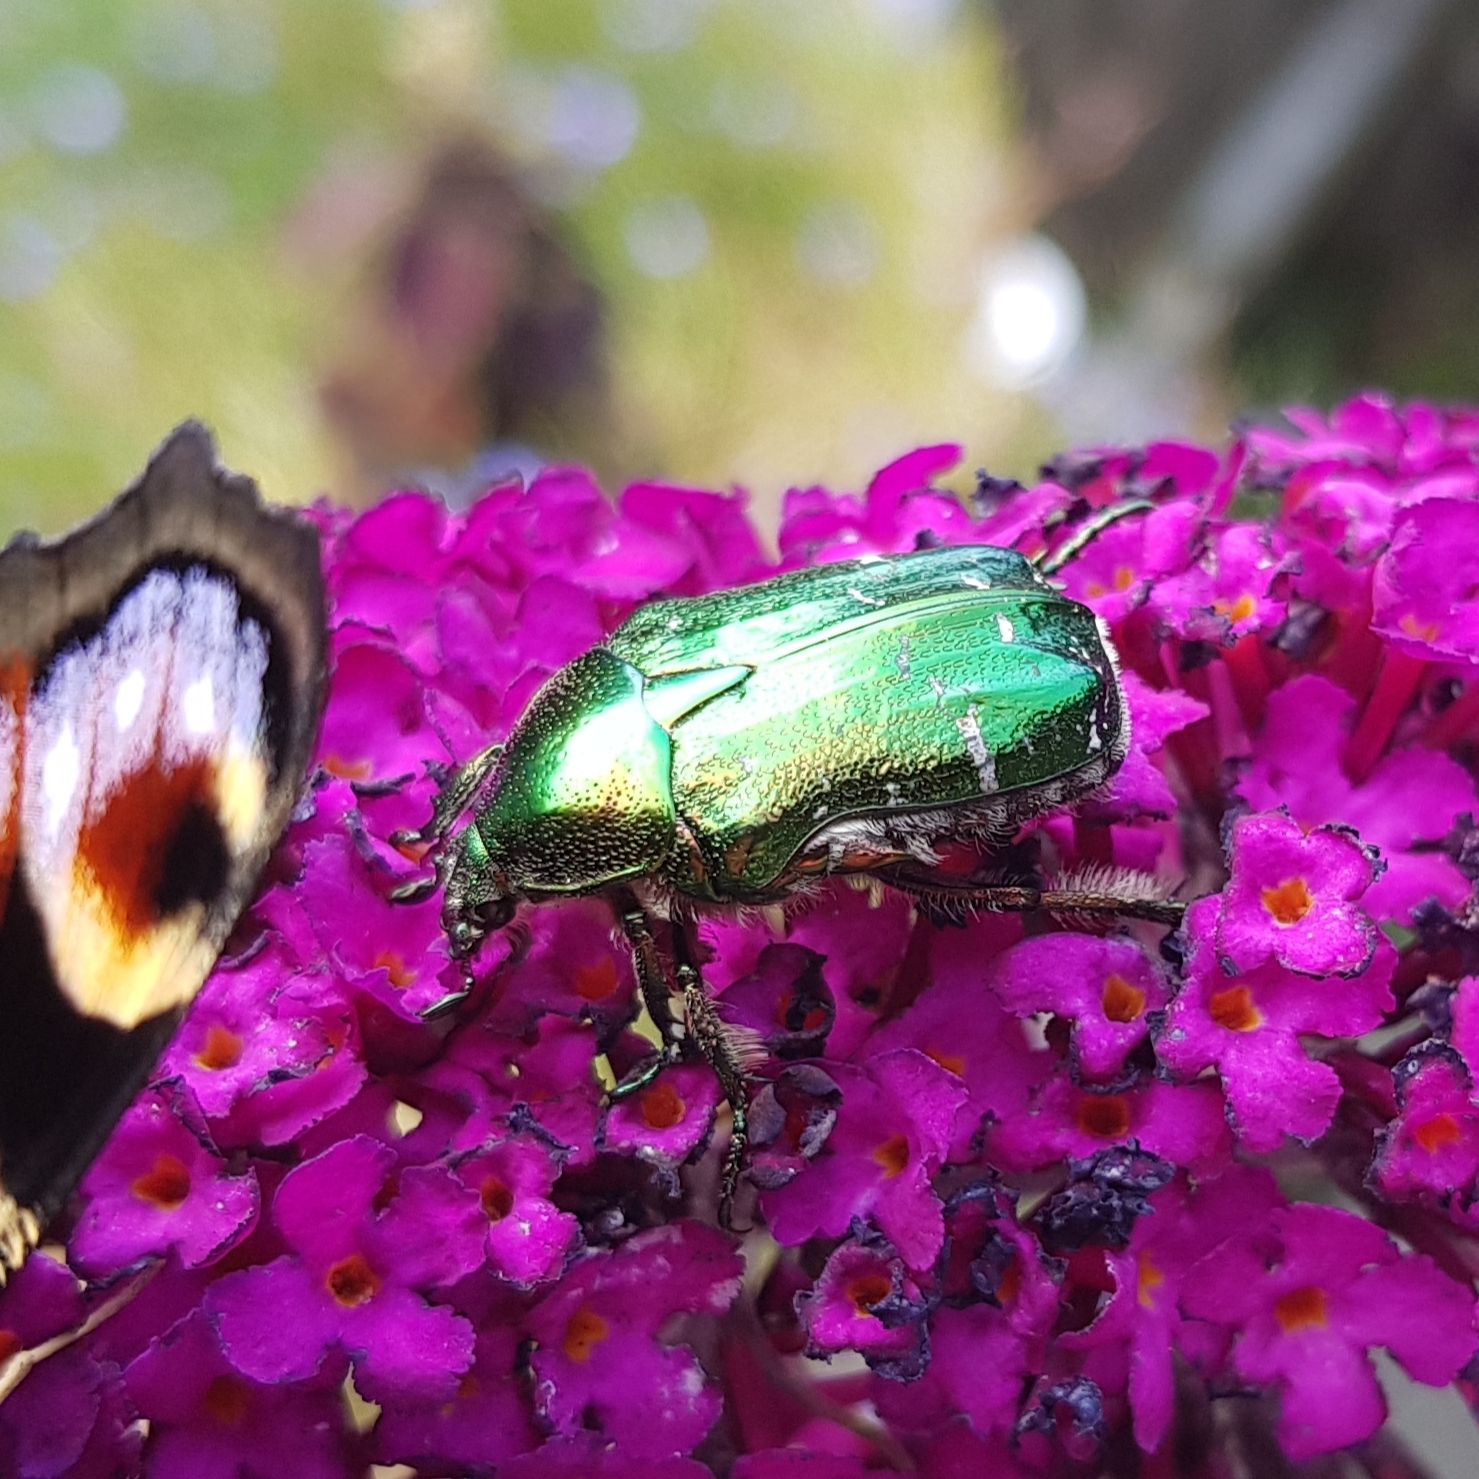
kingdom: Animalia
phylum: Arthropoda
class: Insecta
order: Coleoptera
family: Scarabaeidae
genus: Cetonia
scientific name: Cetonia aurata
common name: Rose chafer
